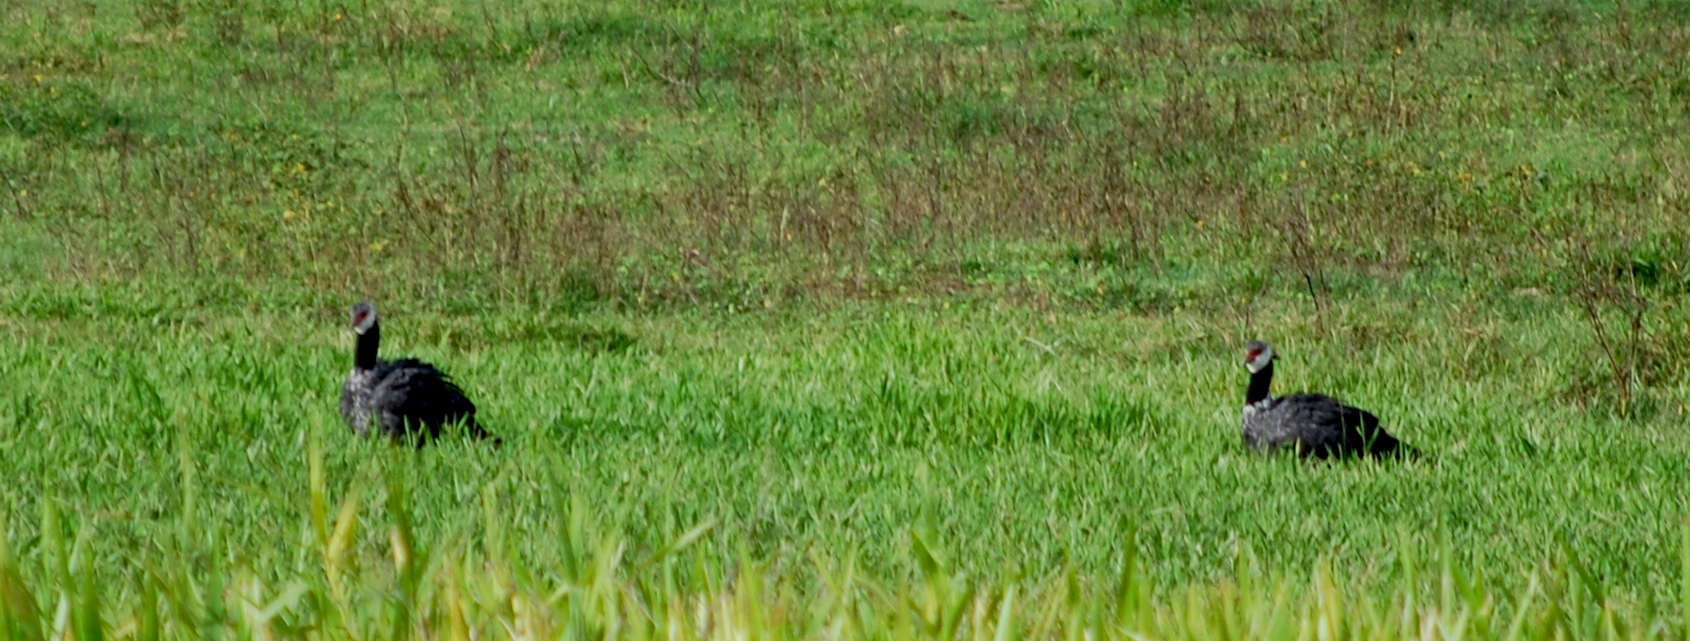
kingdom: Animalia
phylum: Chordata
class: Aves
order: Anseriformes
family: Anhimidae
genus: Chauna
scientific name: Chauna chavaria
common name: Northern screamer
